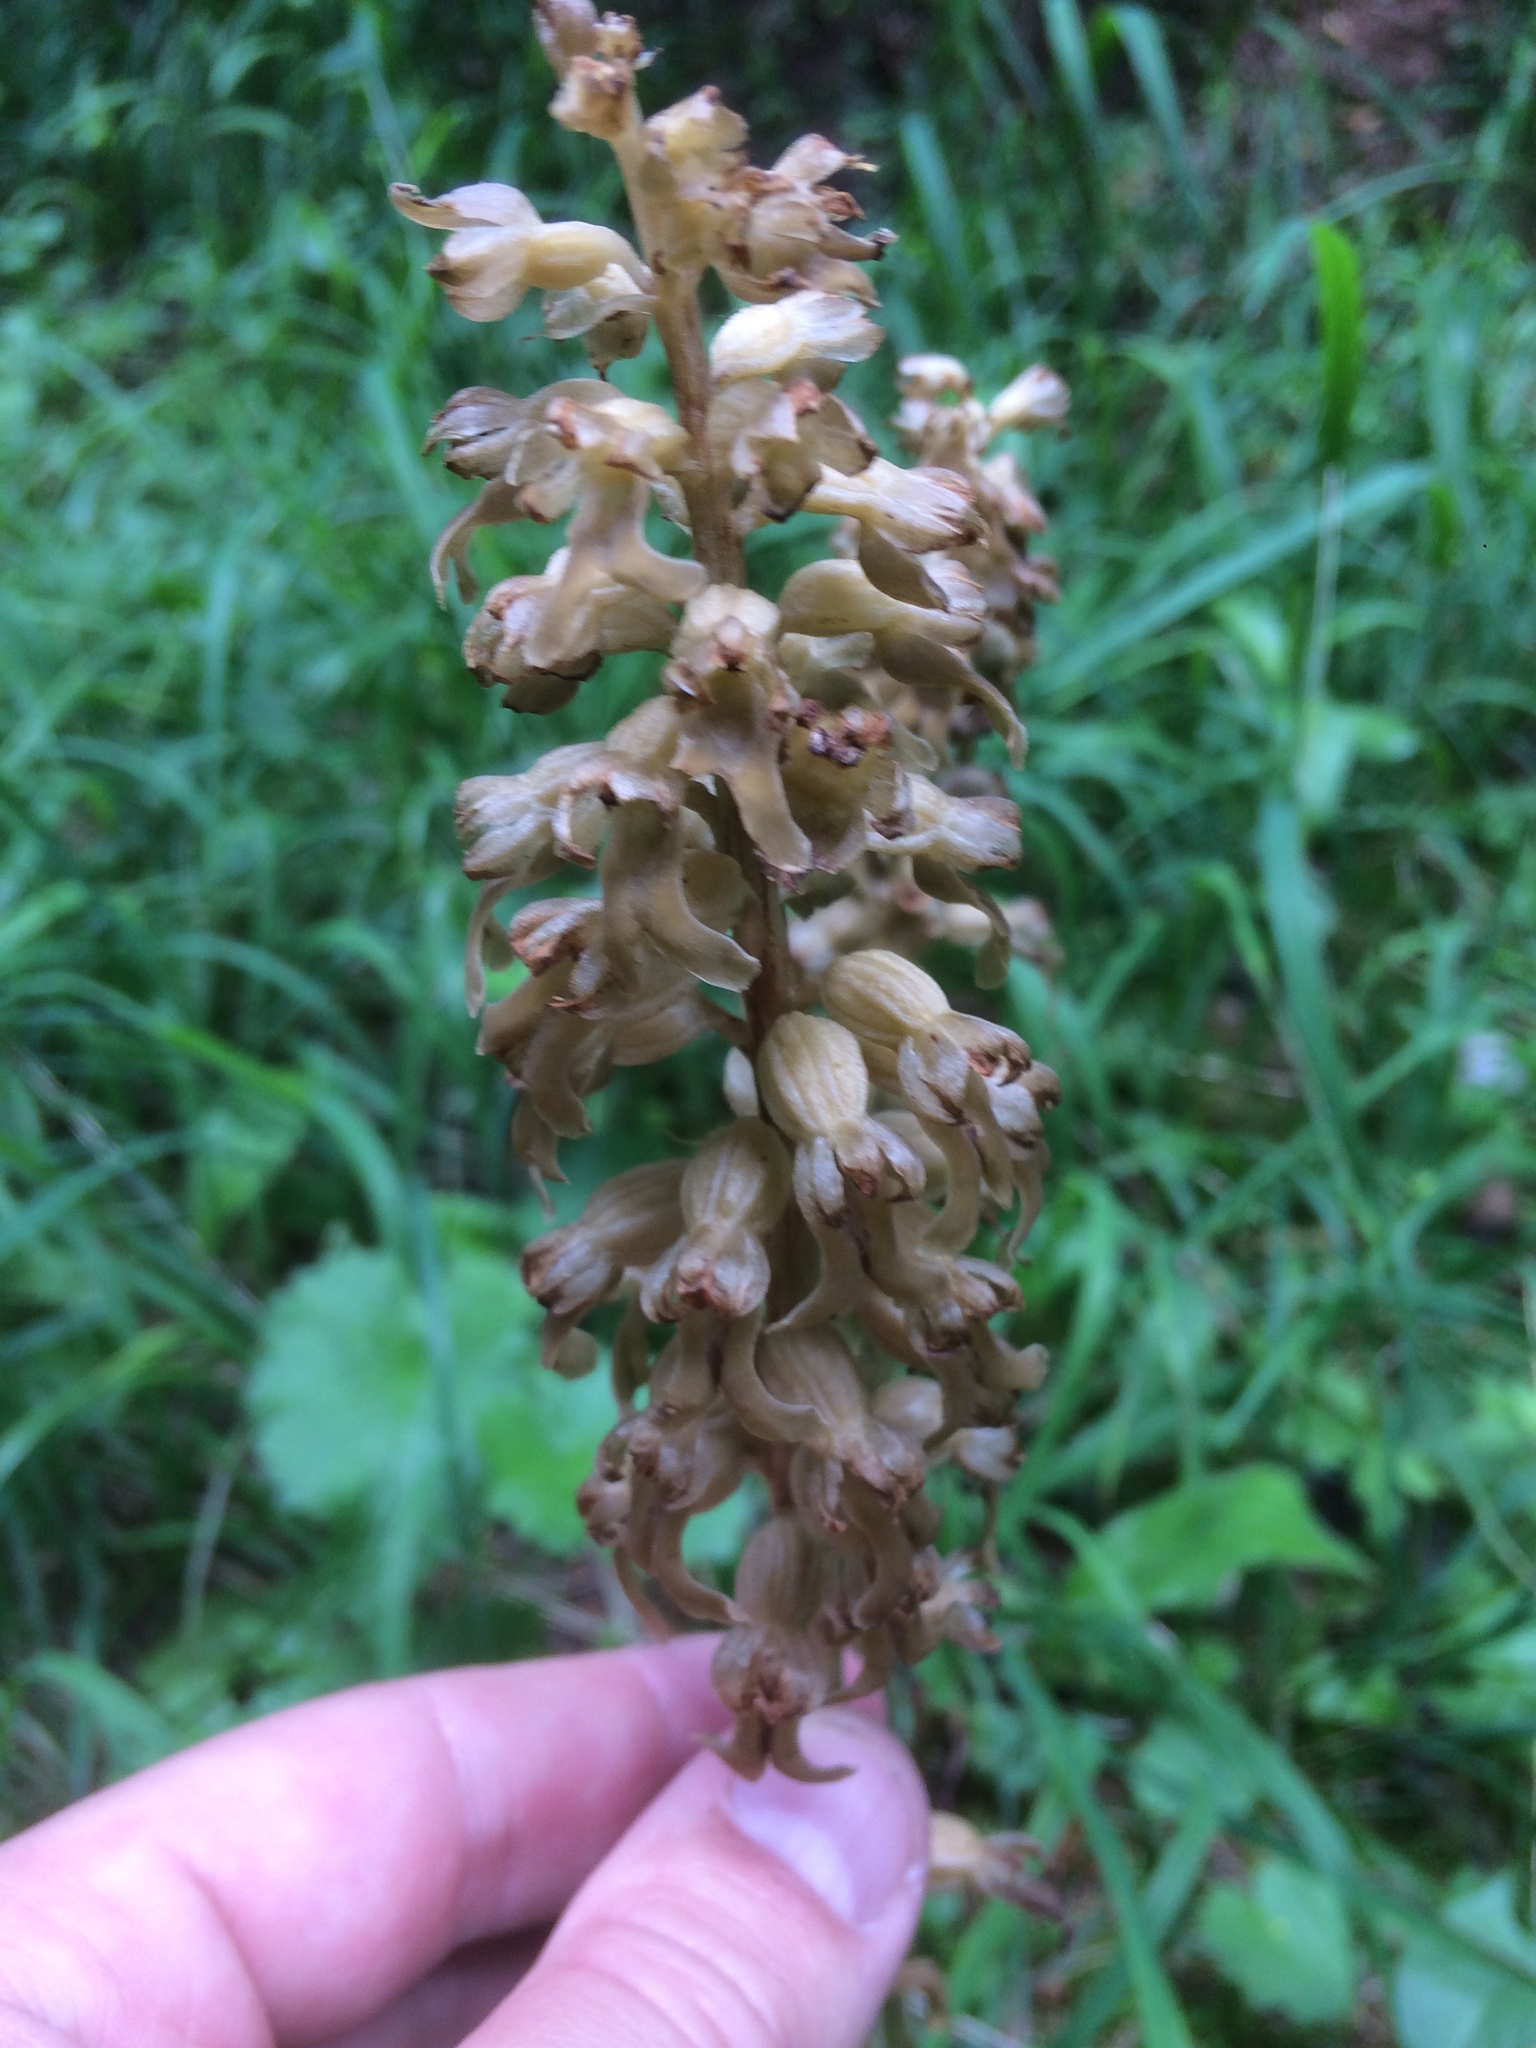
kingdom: Plantae
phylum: Tracheophyta
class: Liliopsida
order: Asparagales
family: Orchidaceae
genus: Neottia
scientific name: Neottia nidus-avis
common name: Bird's-nest orchid
